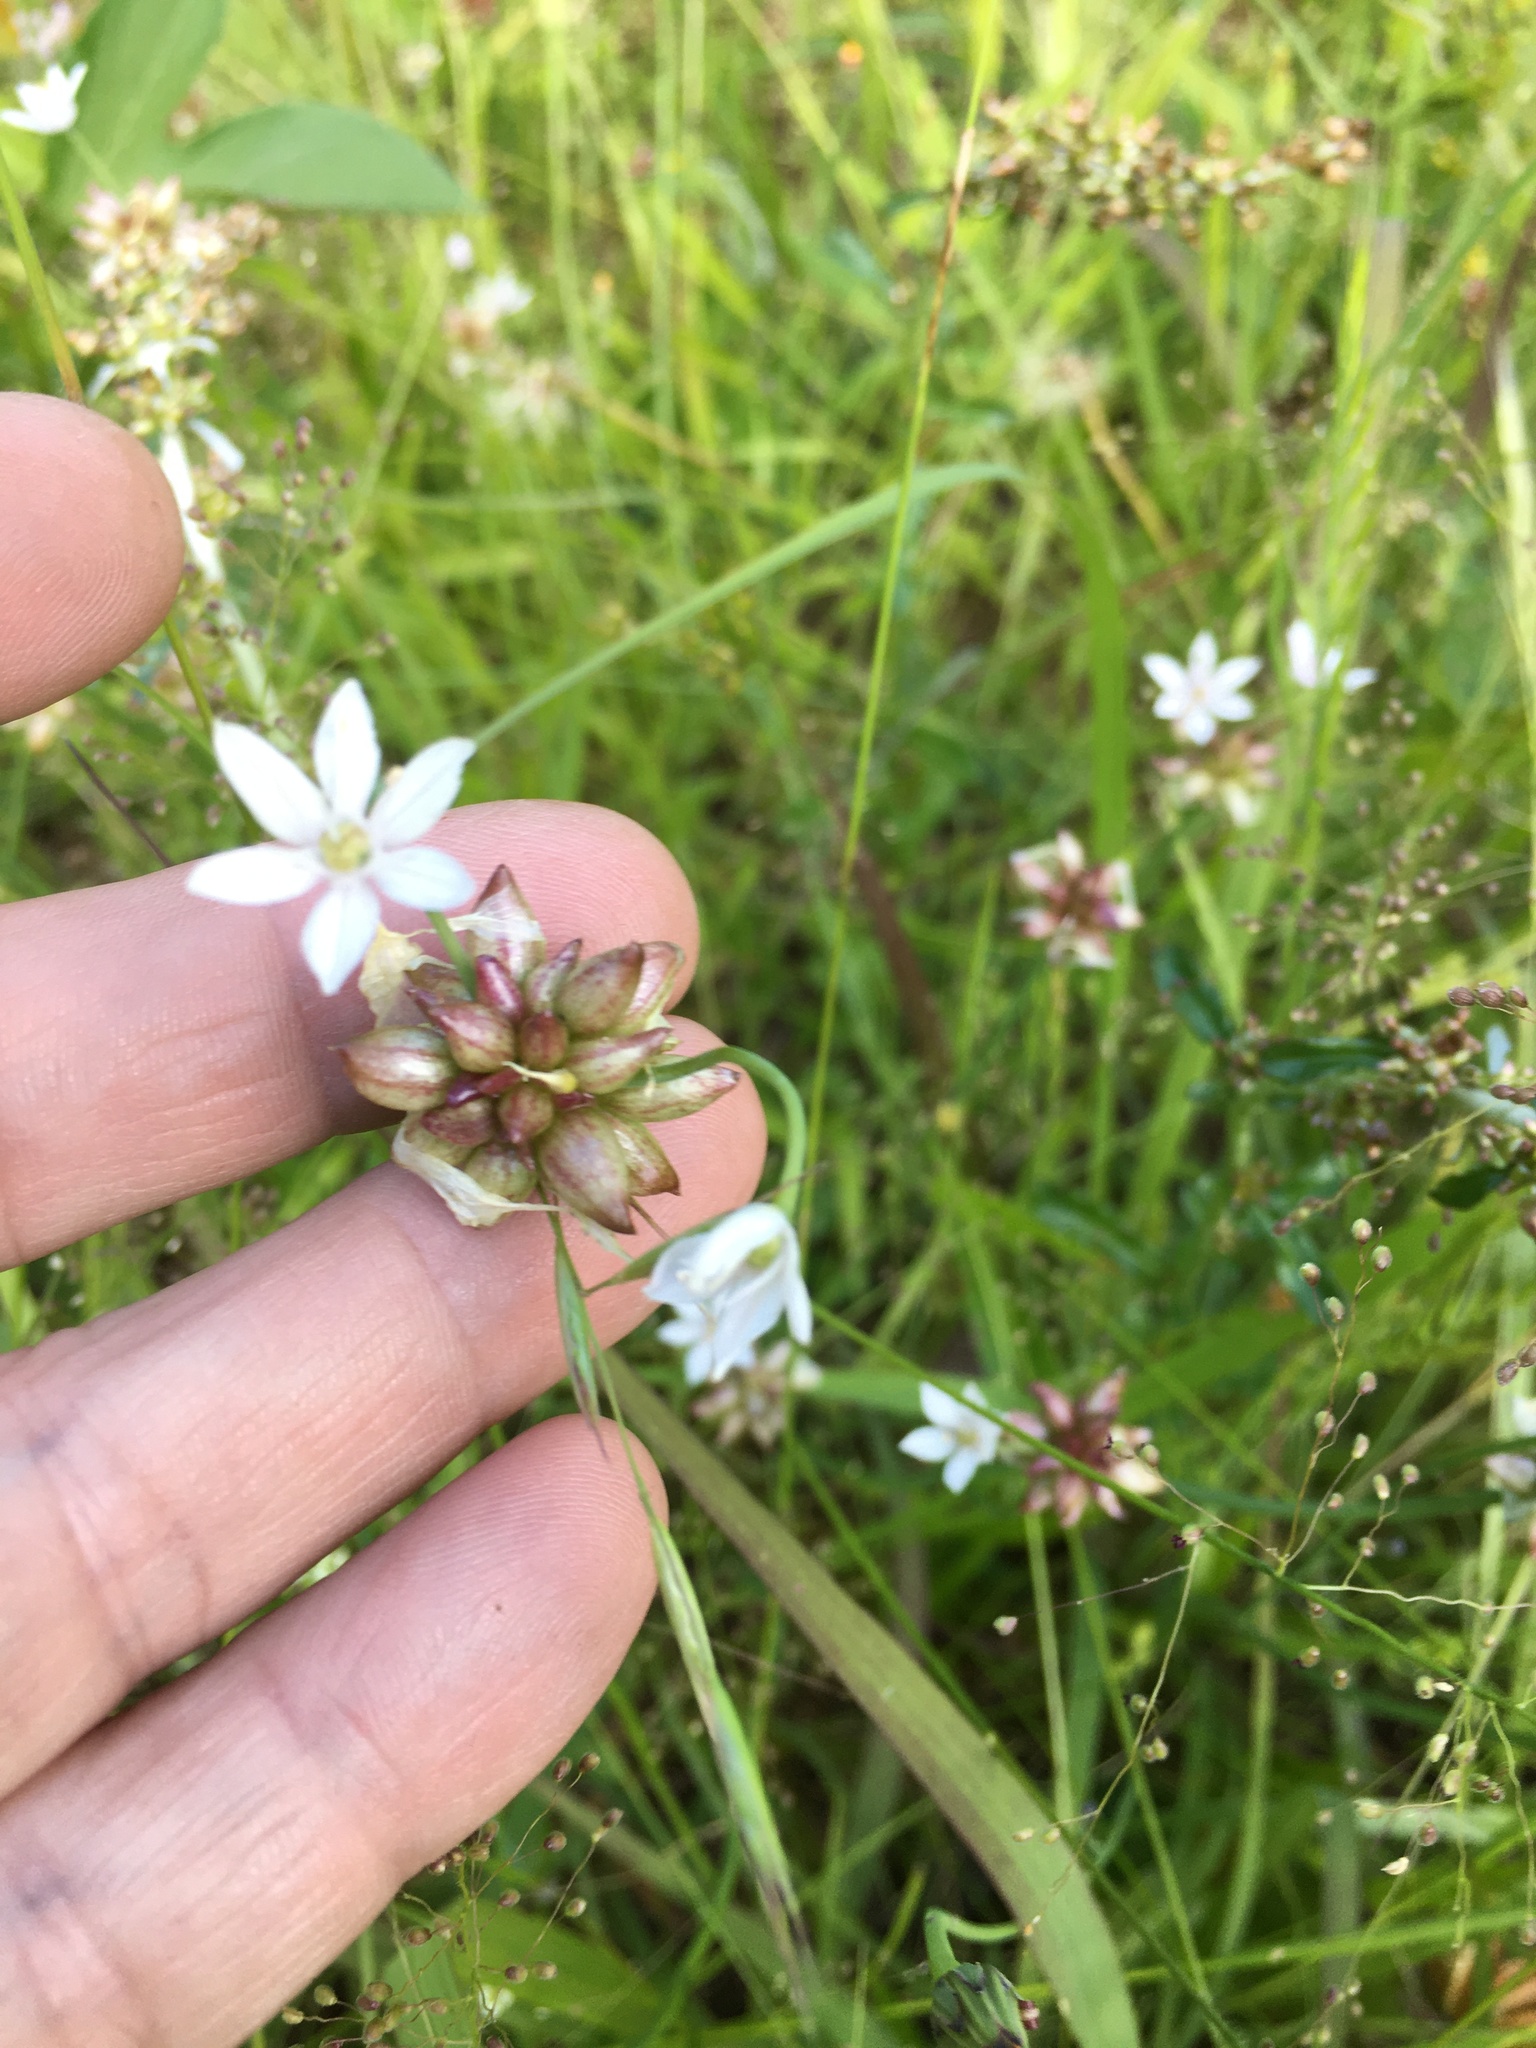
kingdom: Plantae
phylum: Tracheophyta
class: Liliopsida
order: Asparagales
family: Amaryllidaceae
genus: Allium
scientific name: Allium canadense
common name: Meadow garlic
